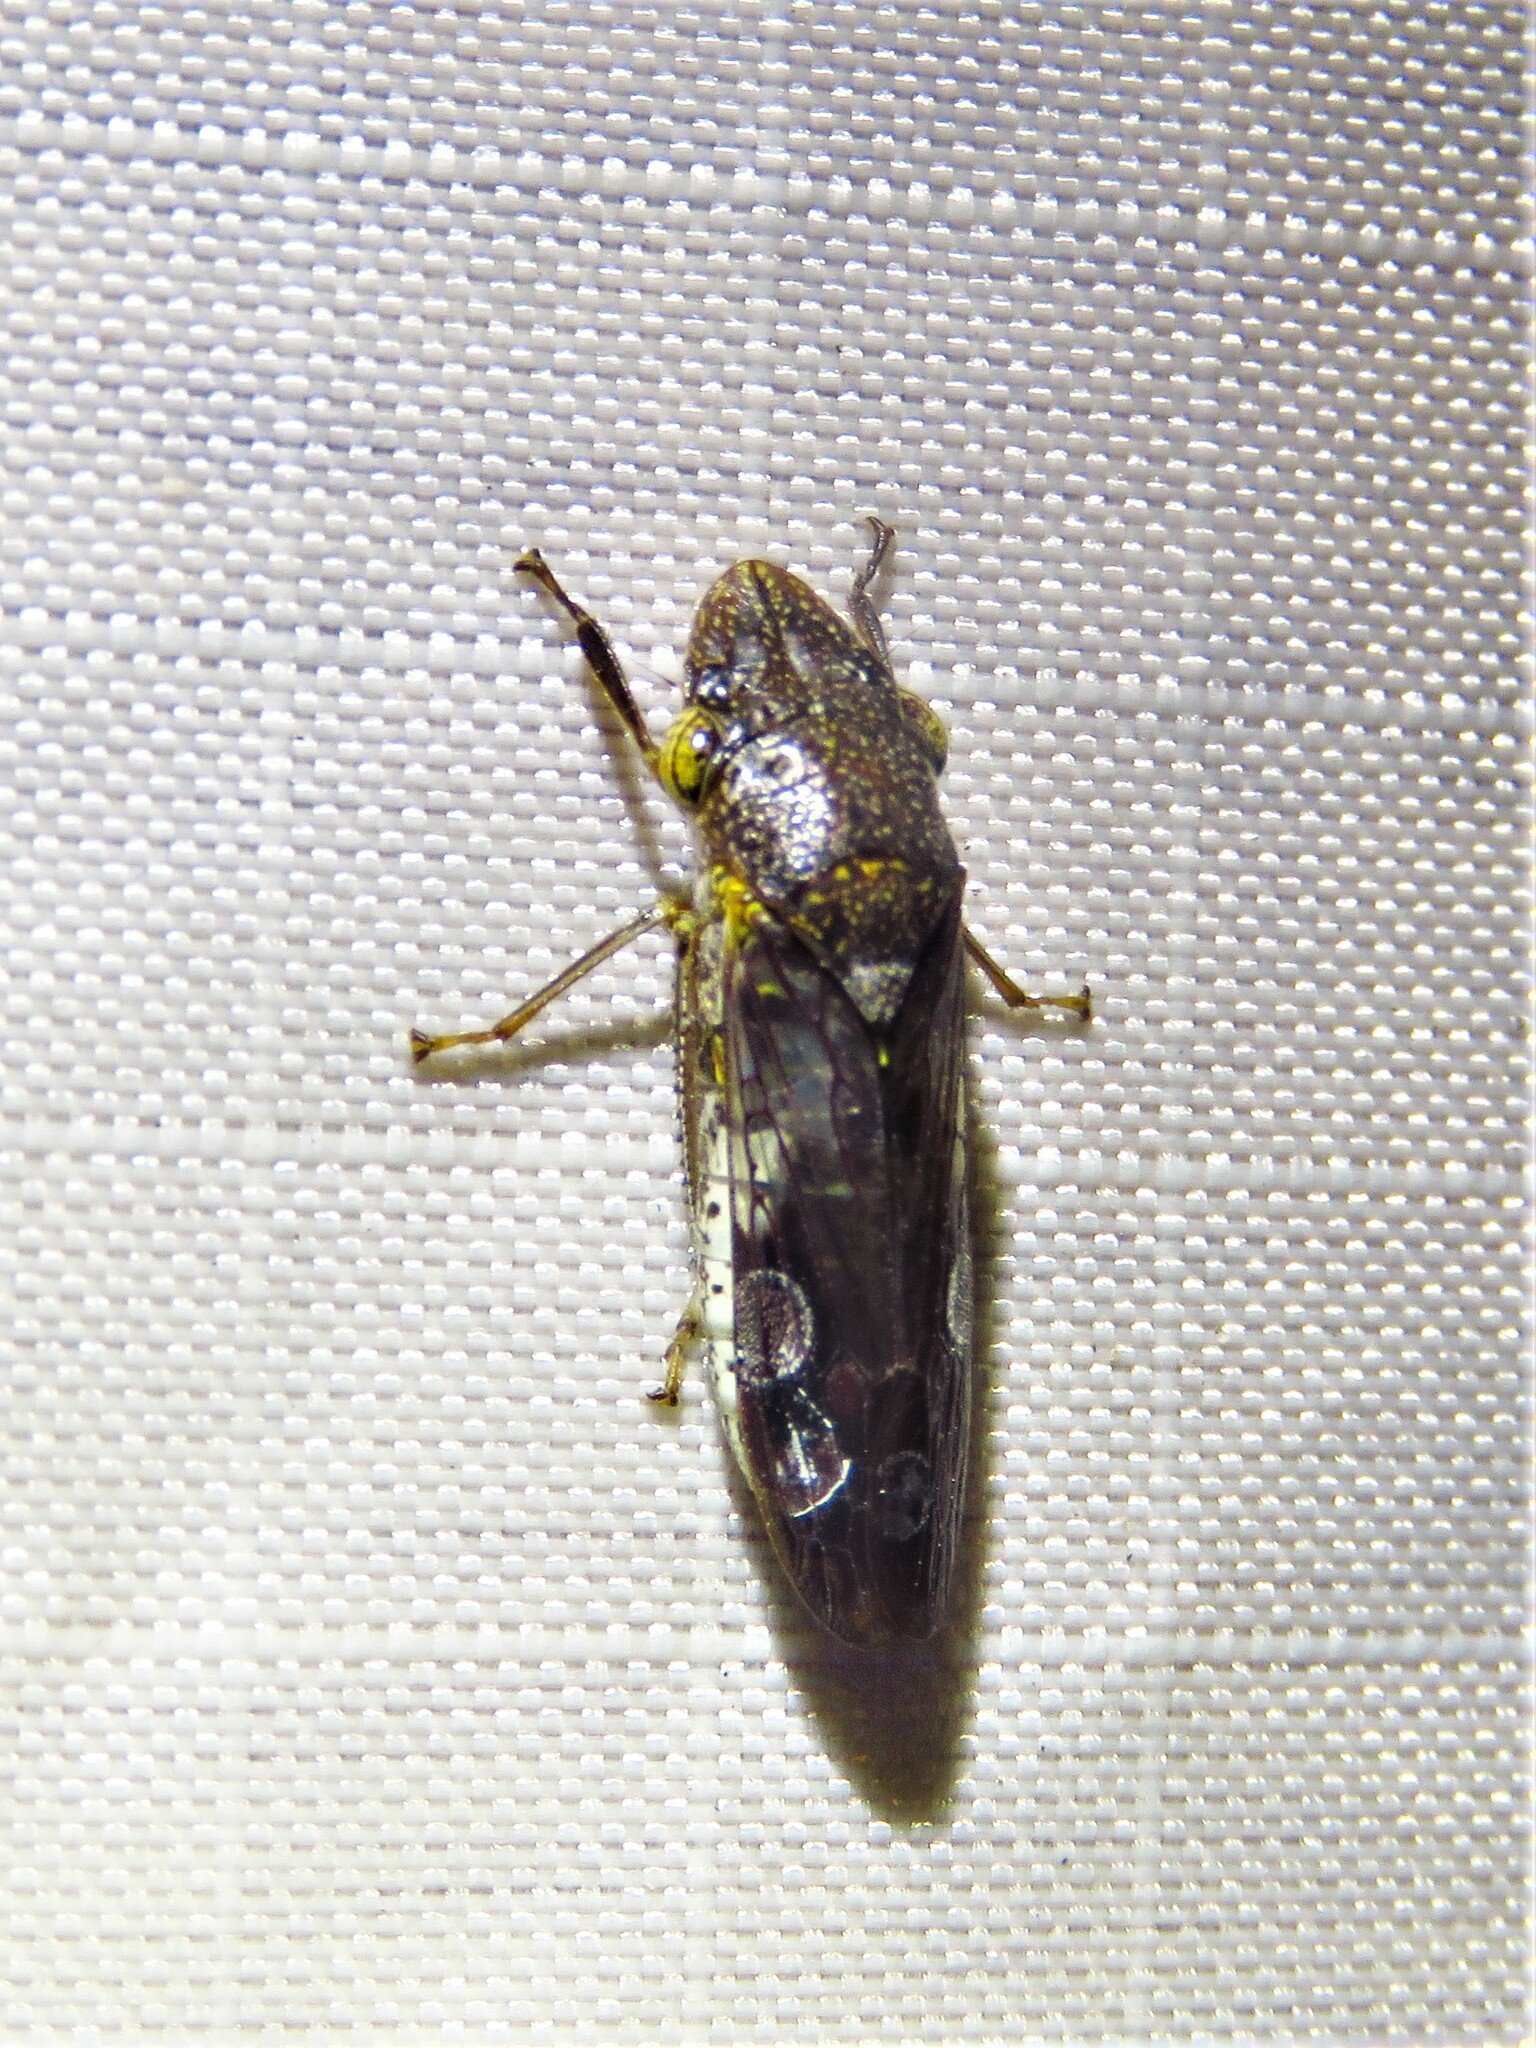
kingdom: Animalia
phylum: Arthropoda
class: Insecta
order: Hemiptera
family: Cicadellidae
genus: Homalodisca
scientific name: Homalodisca vitripennis
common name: Glassy-winged sharpshooter
